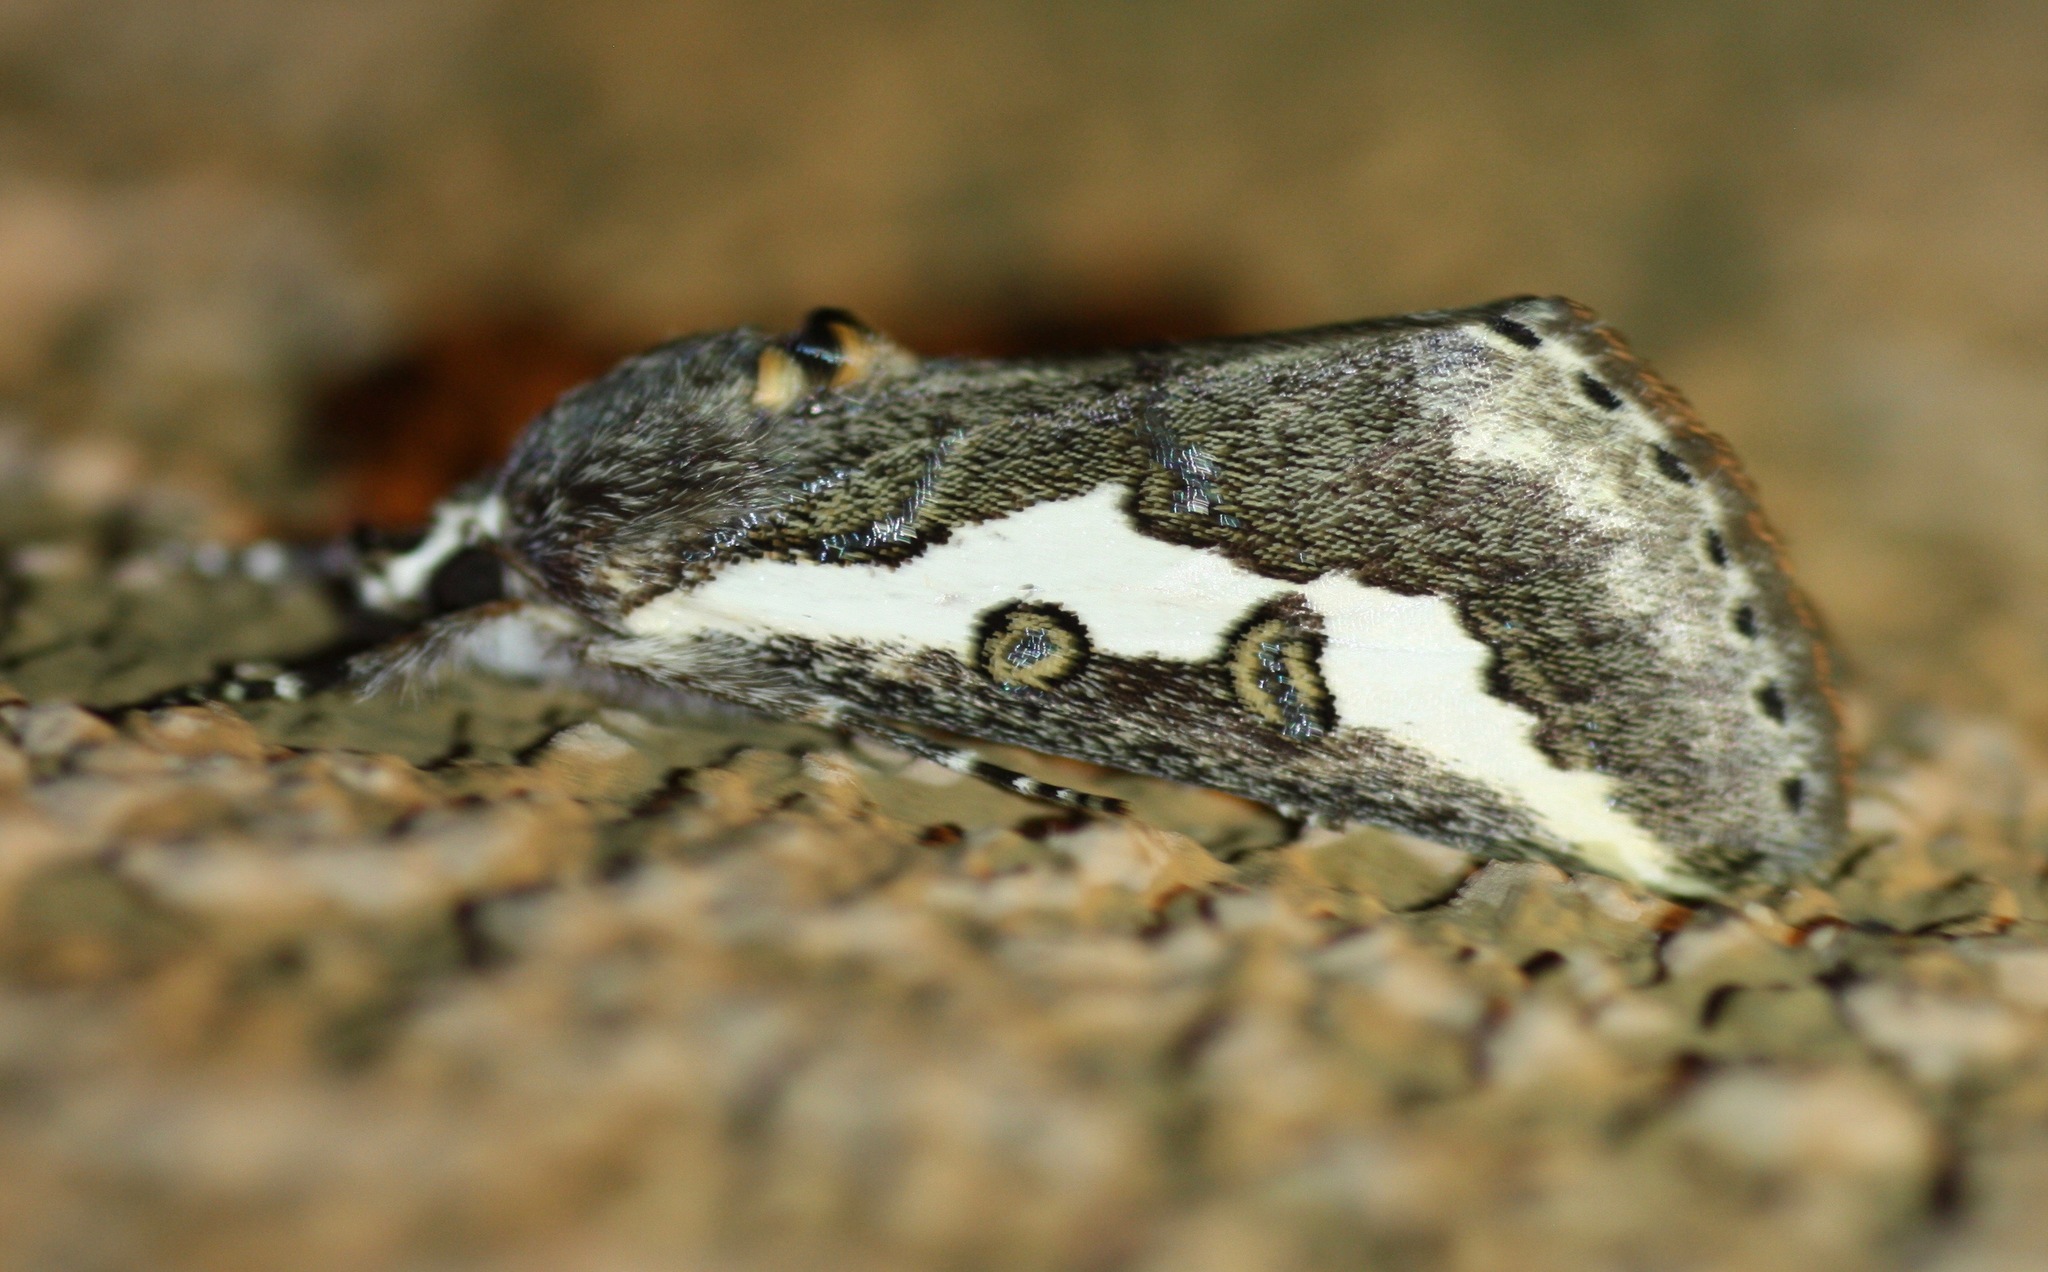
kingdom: Animalia
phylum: Arthropoda
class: Insecta
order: Lepidoptera
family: Noctuidae
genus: Euscirrhopterus
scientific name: Euscirrhopterus gloveri
